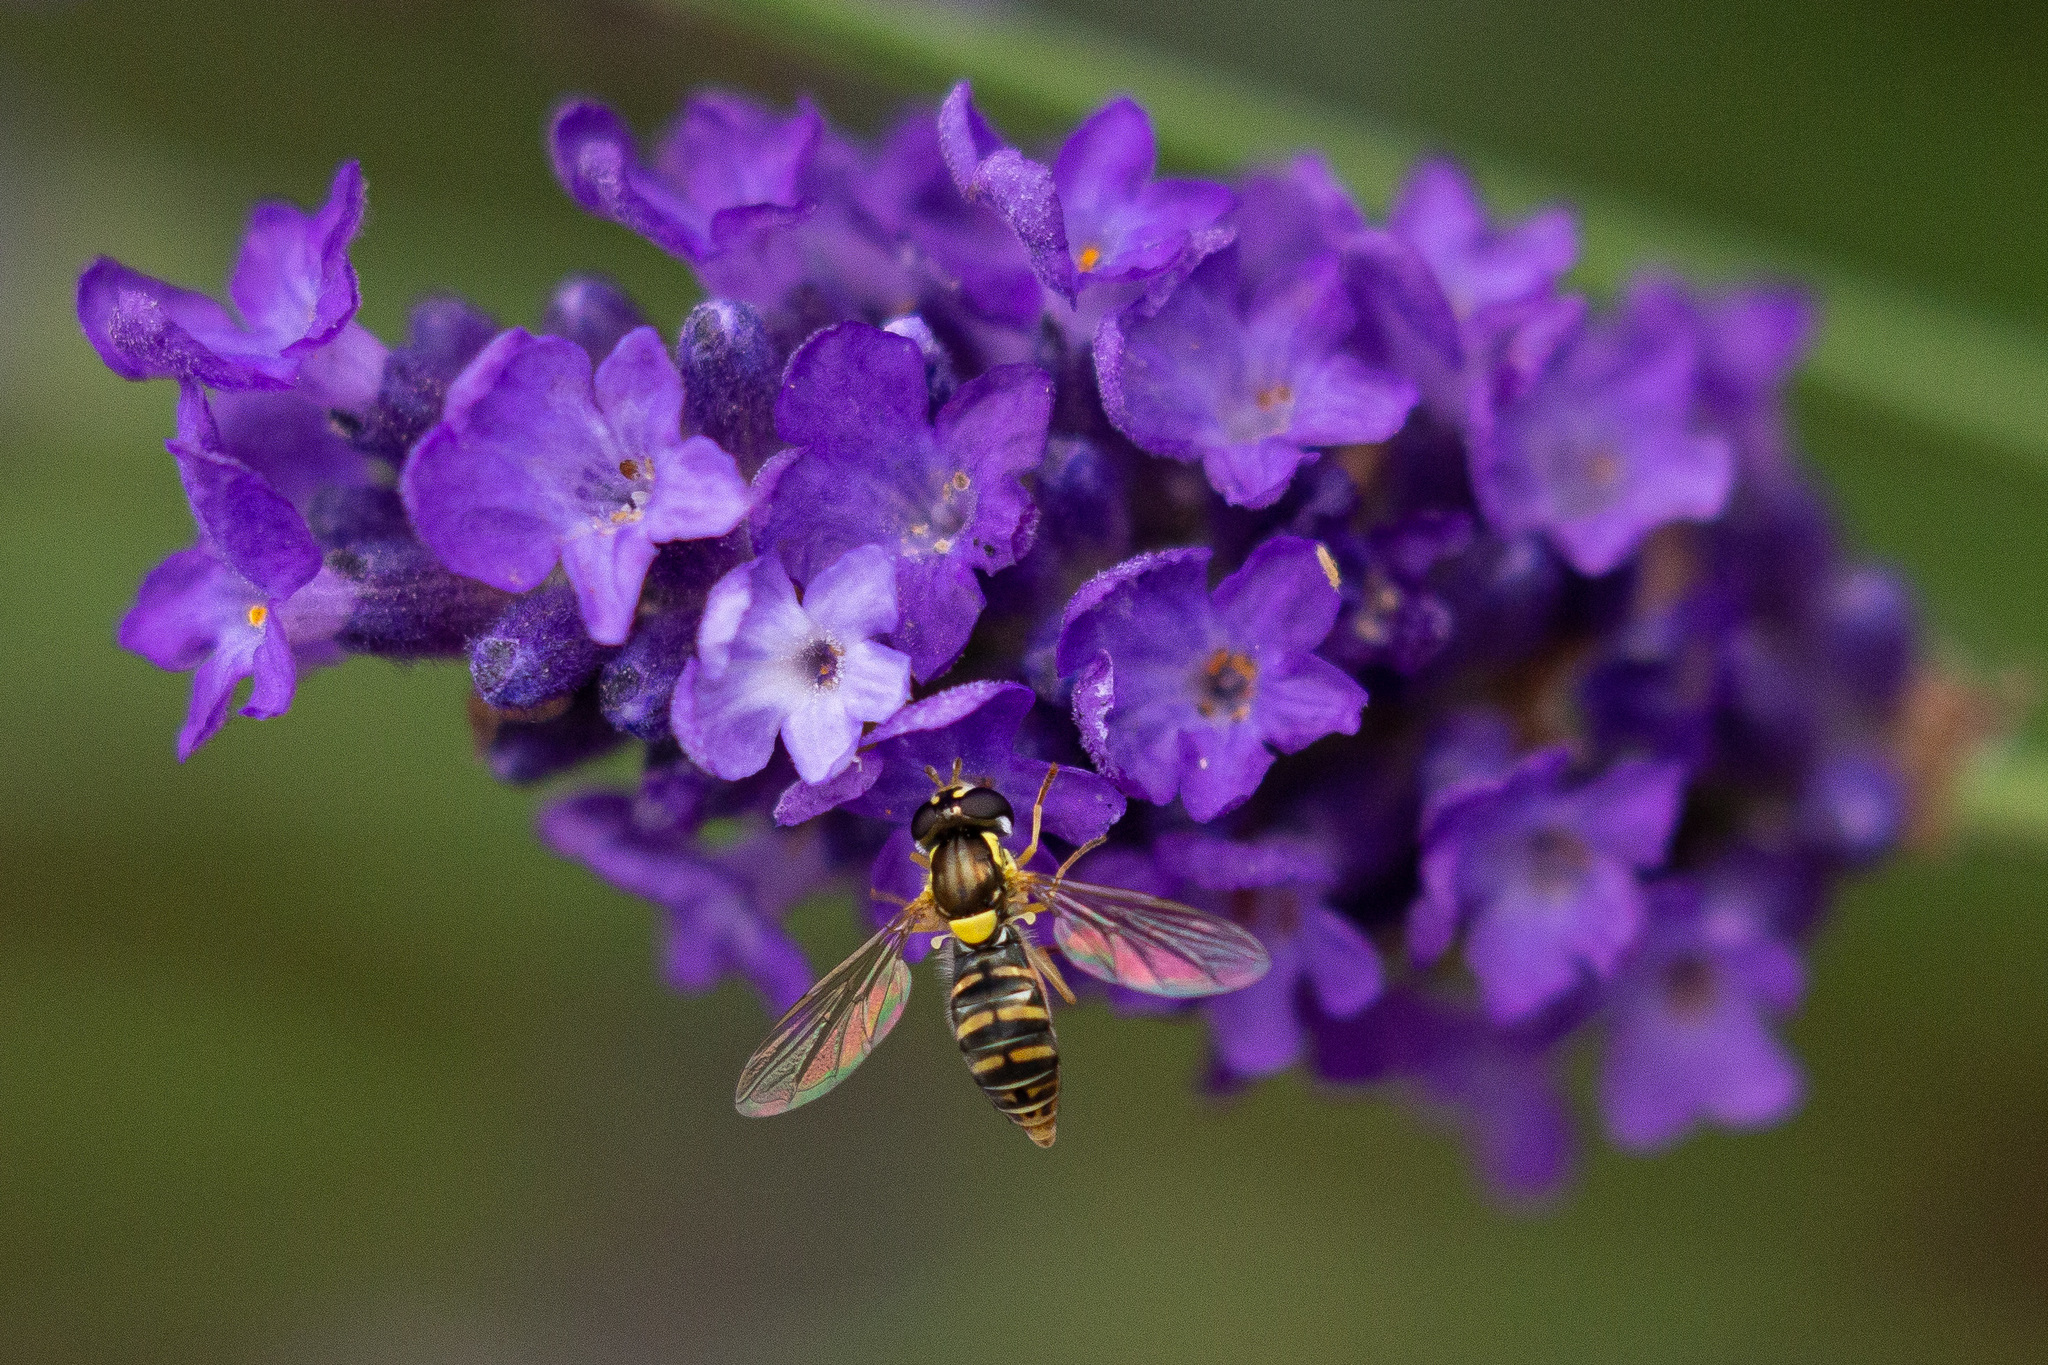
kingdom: Animalia
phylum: Arthropoda
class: Insecta
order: Diptera
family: Syrphidae
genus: Sphaerophoria
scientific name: Sphaerophoria sulphuripes
